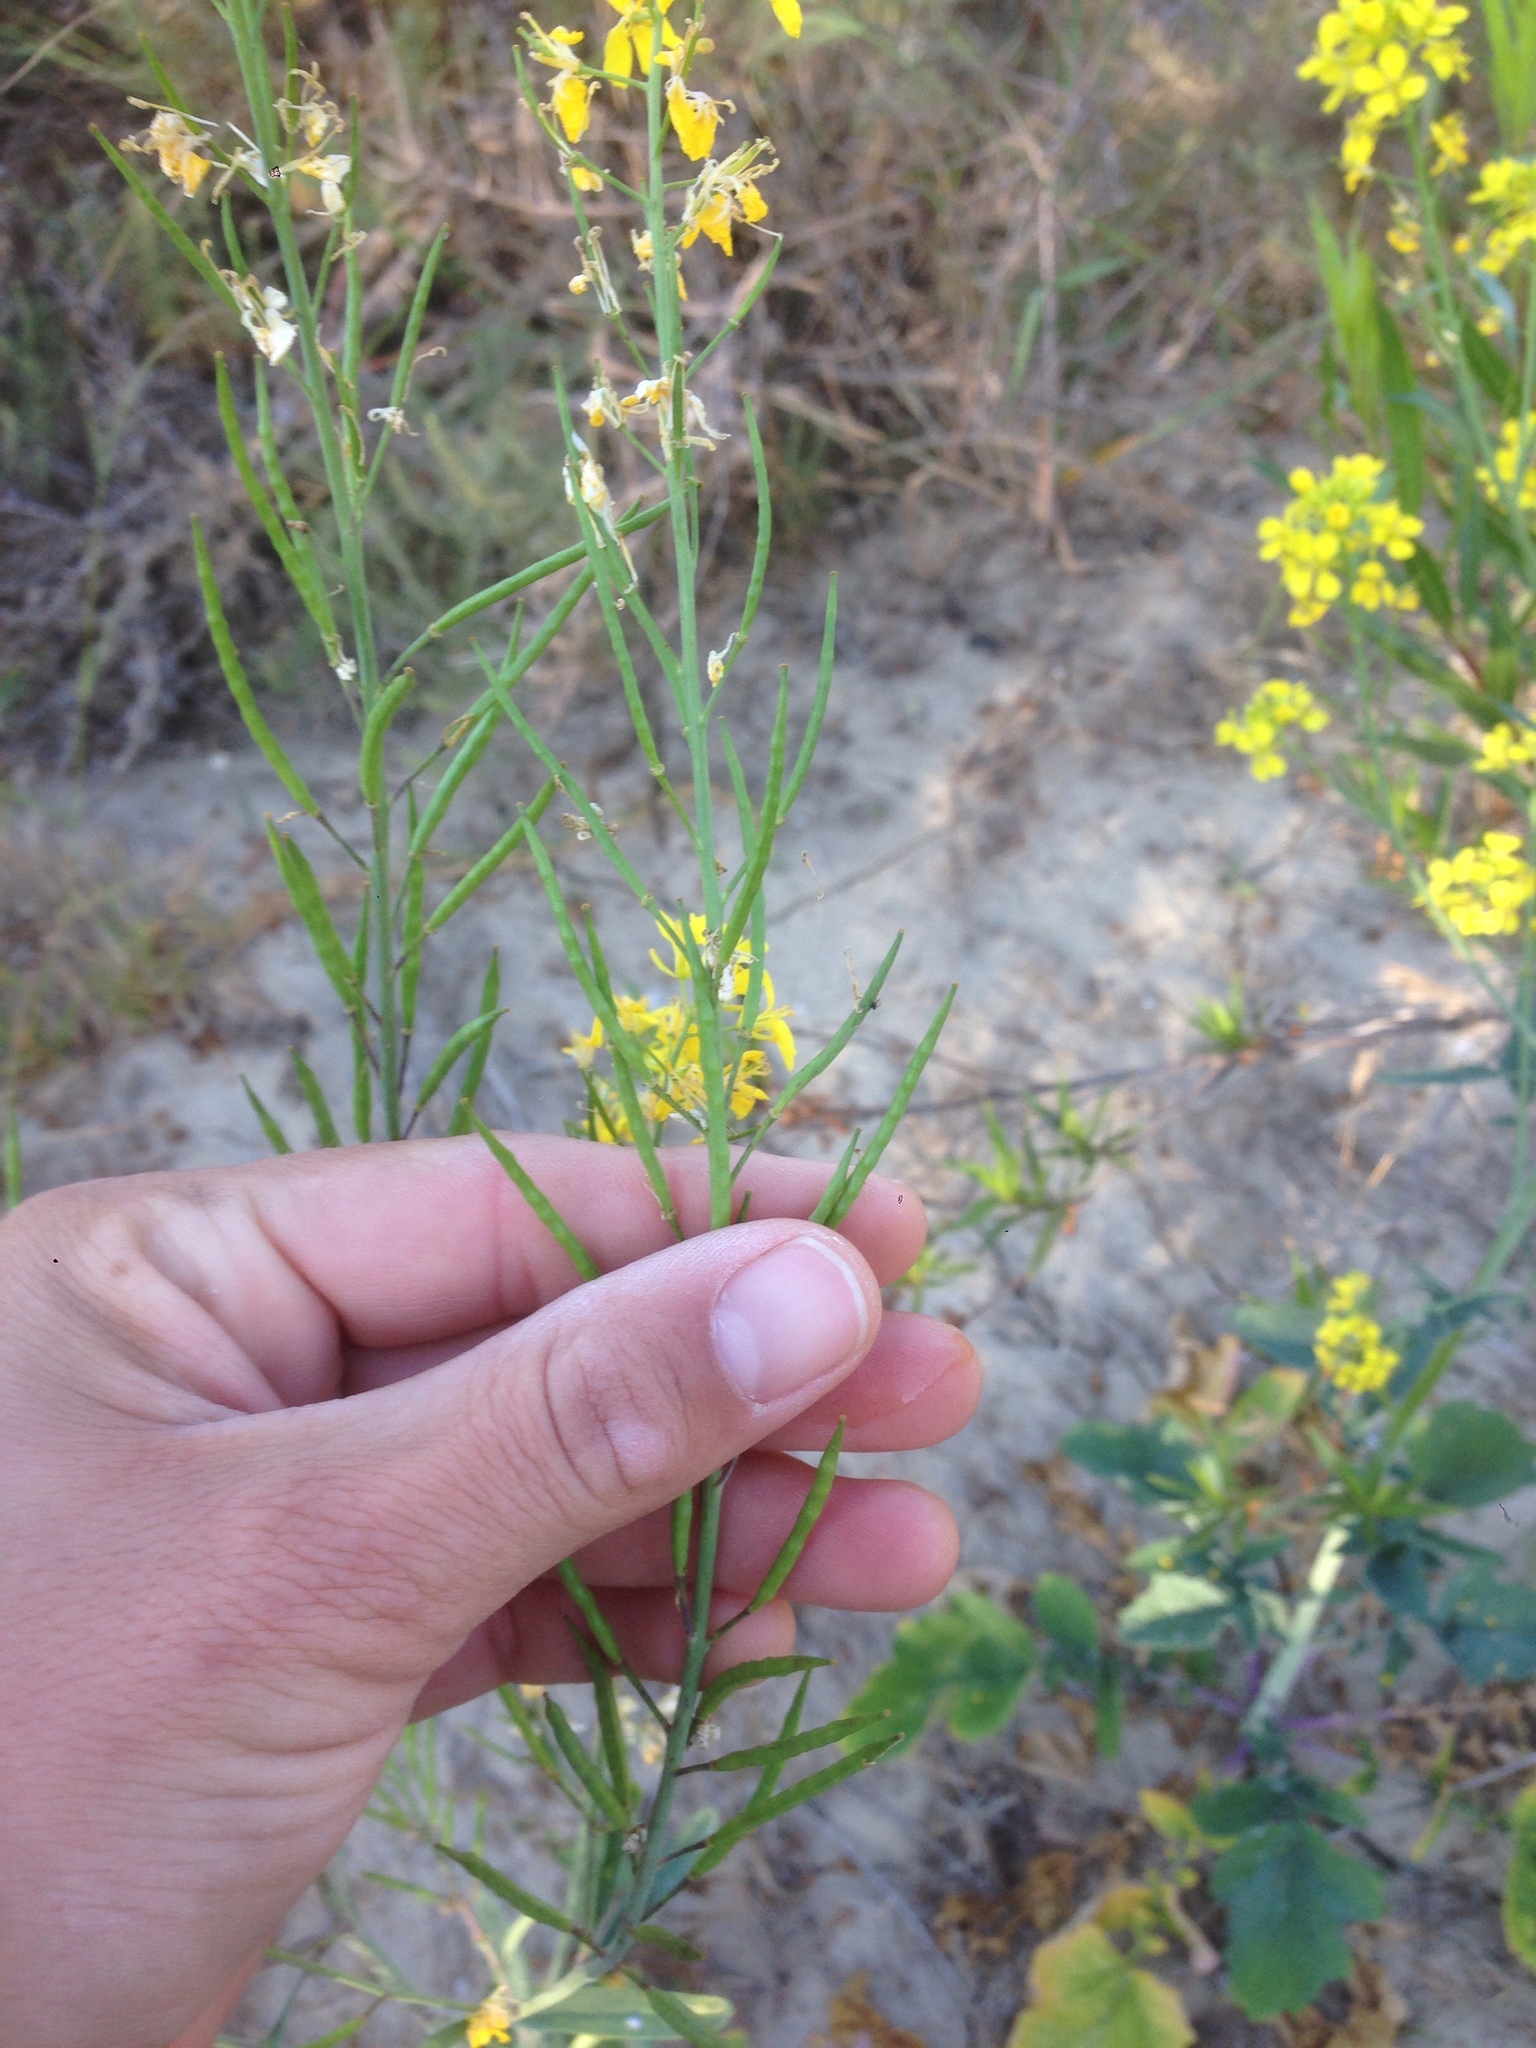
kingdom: Plantae
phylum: Tracheophyta
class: Magnoliopsida
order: Brassicales
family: Brassicaceae
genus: Brassica
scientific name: Brassica nigra
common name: Black mustard
